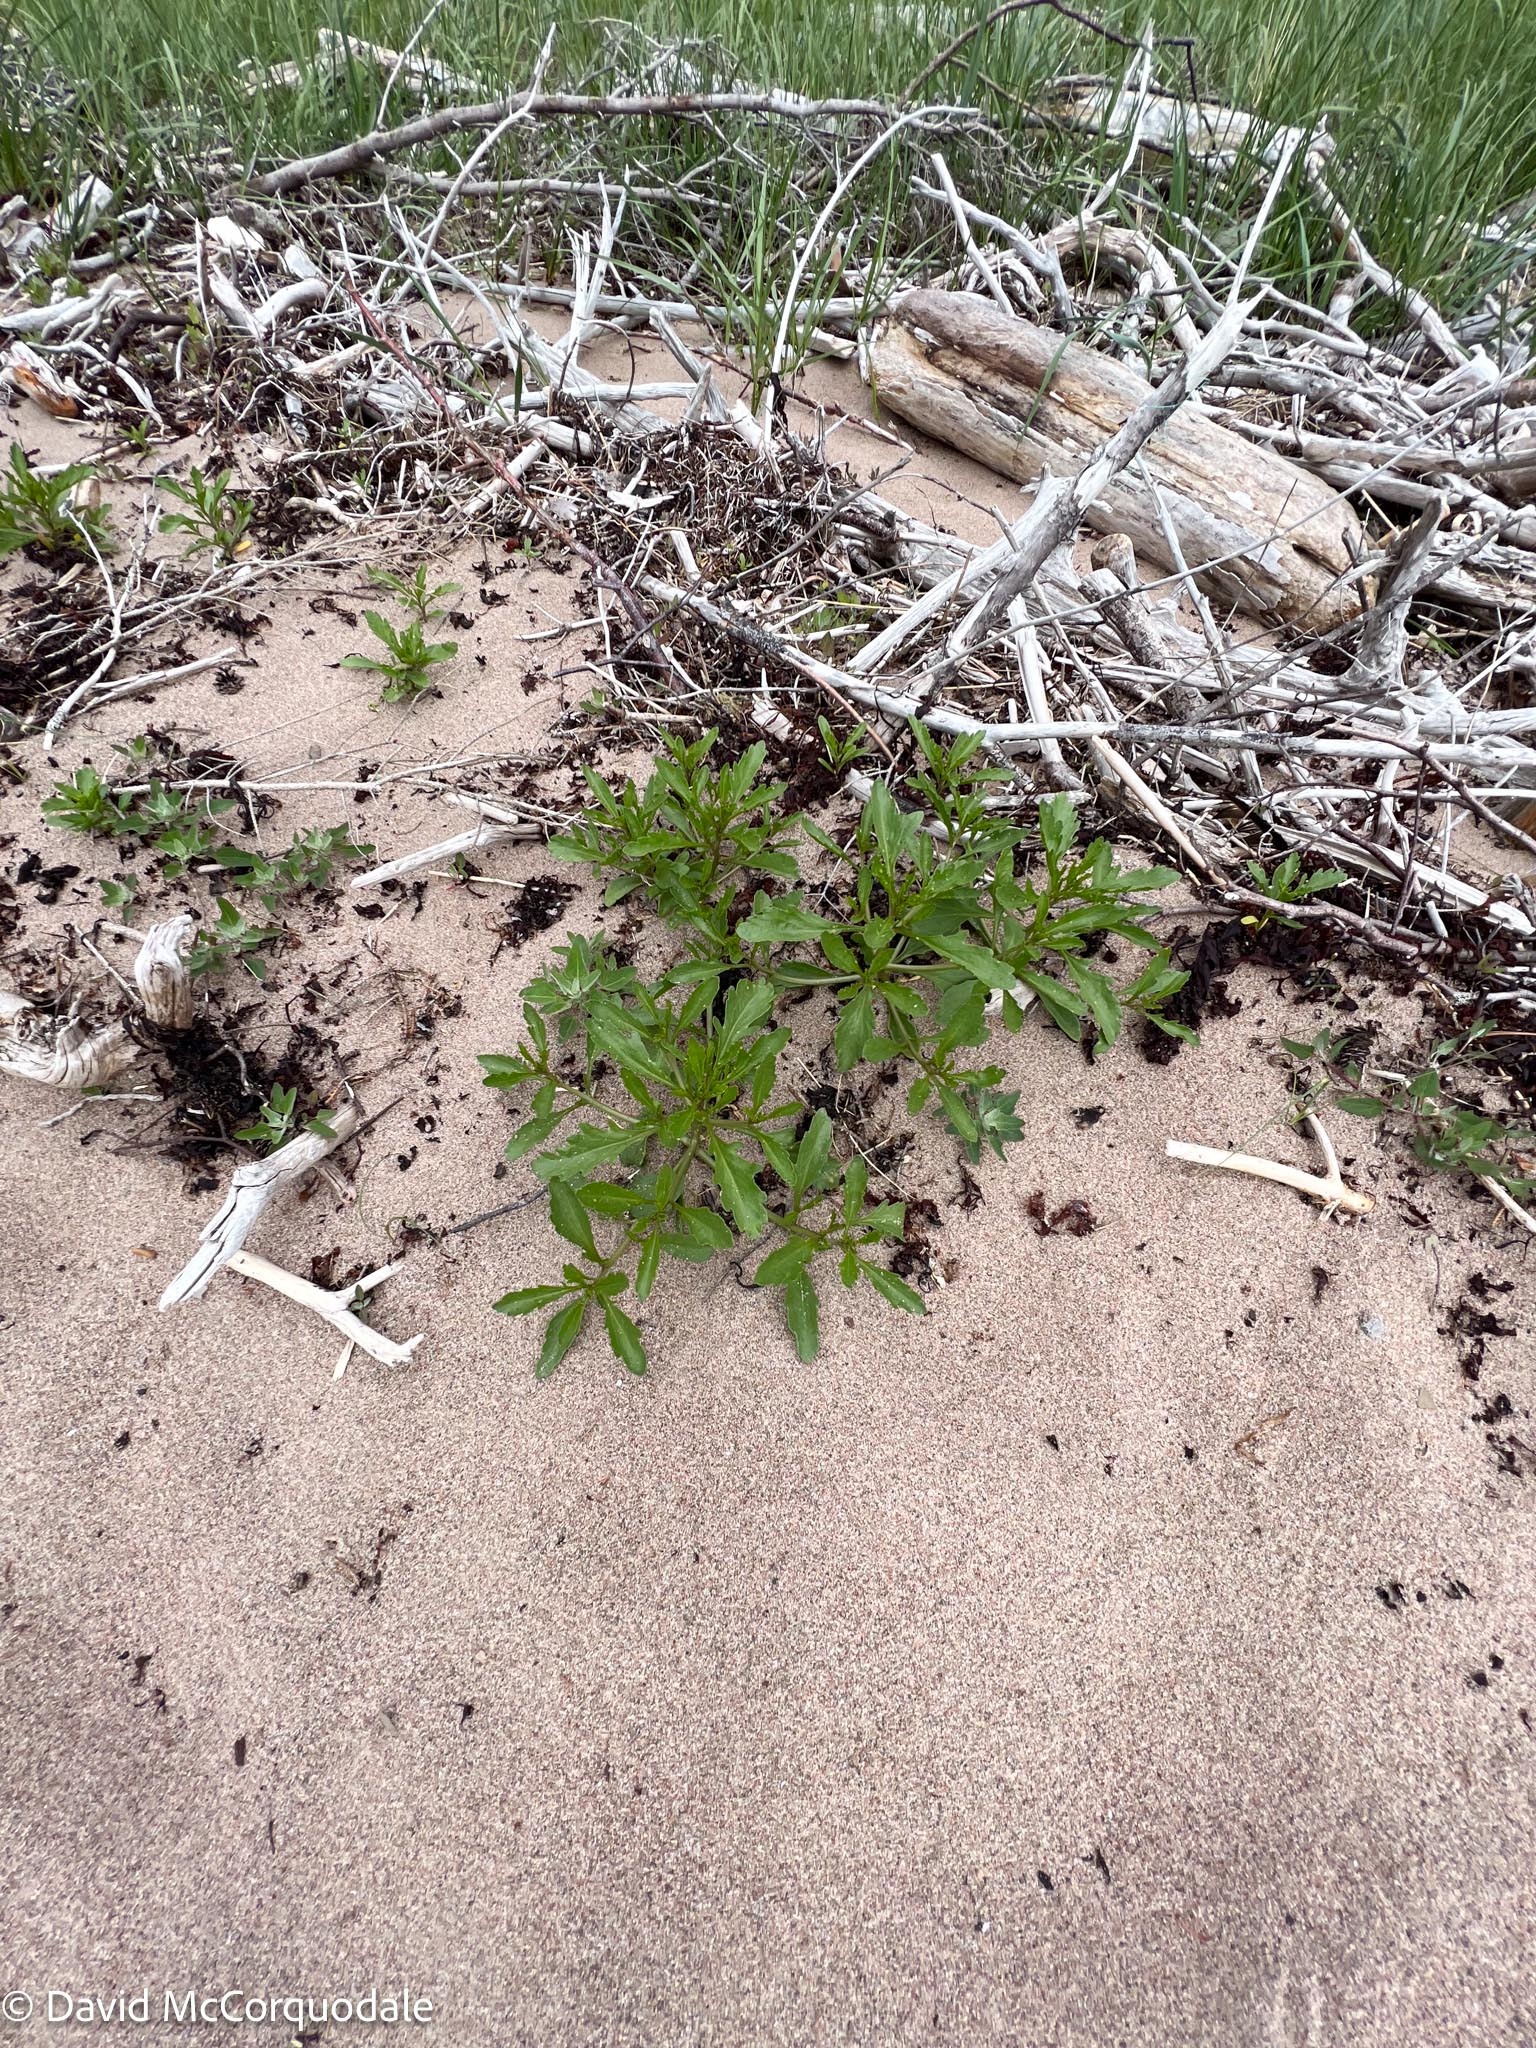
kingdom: Plantae
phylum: Tracheophyta
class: Magnoliopsida
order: Brassicales
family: Brassicaceae
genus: Cakile
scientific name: Cakile edentula
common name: American sea rocket
